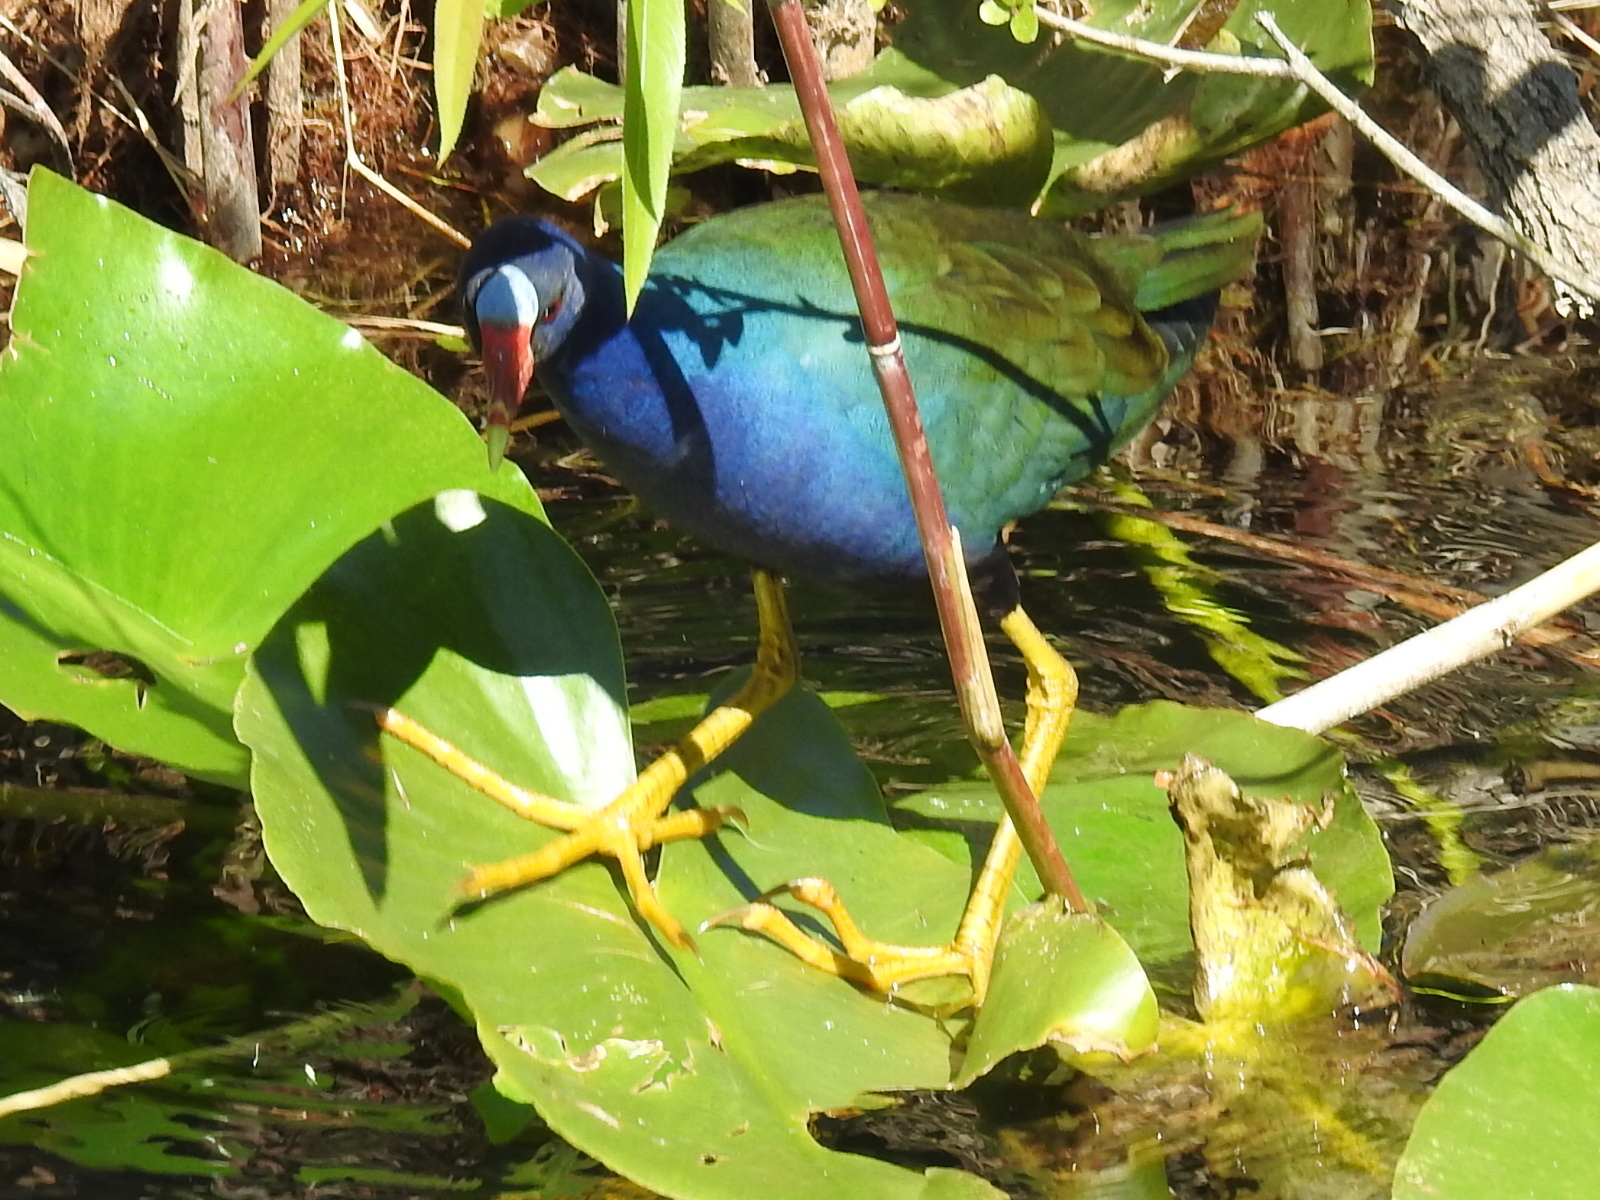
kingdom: Animalia
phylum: Chordata
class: Aves
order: Gruiformes
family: Rallidae
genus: Porphyrio
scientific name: Porphyrio martinica
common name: Purple gallinule
